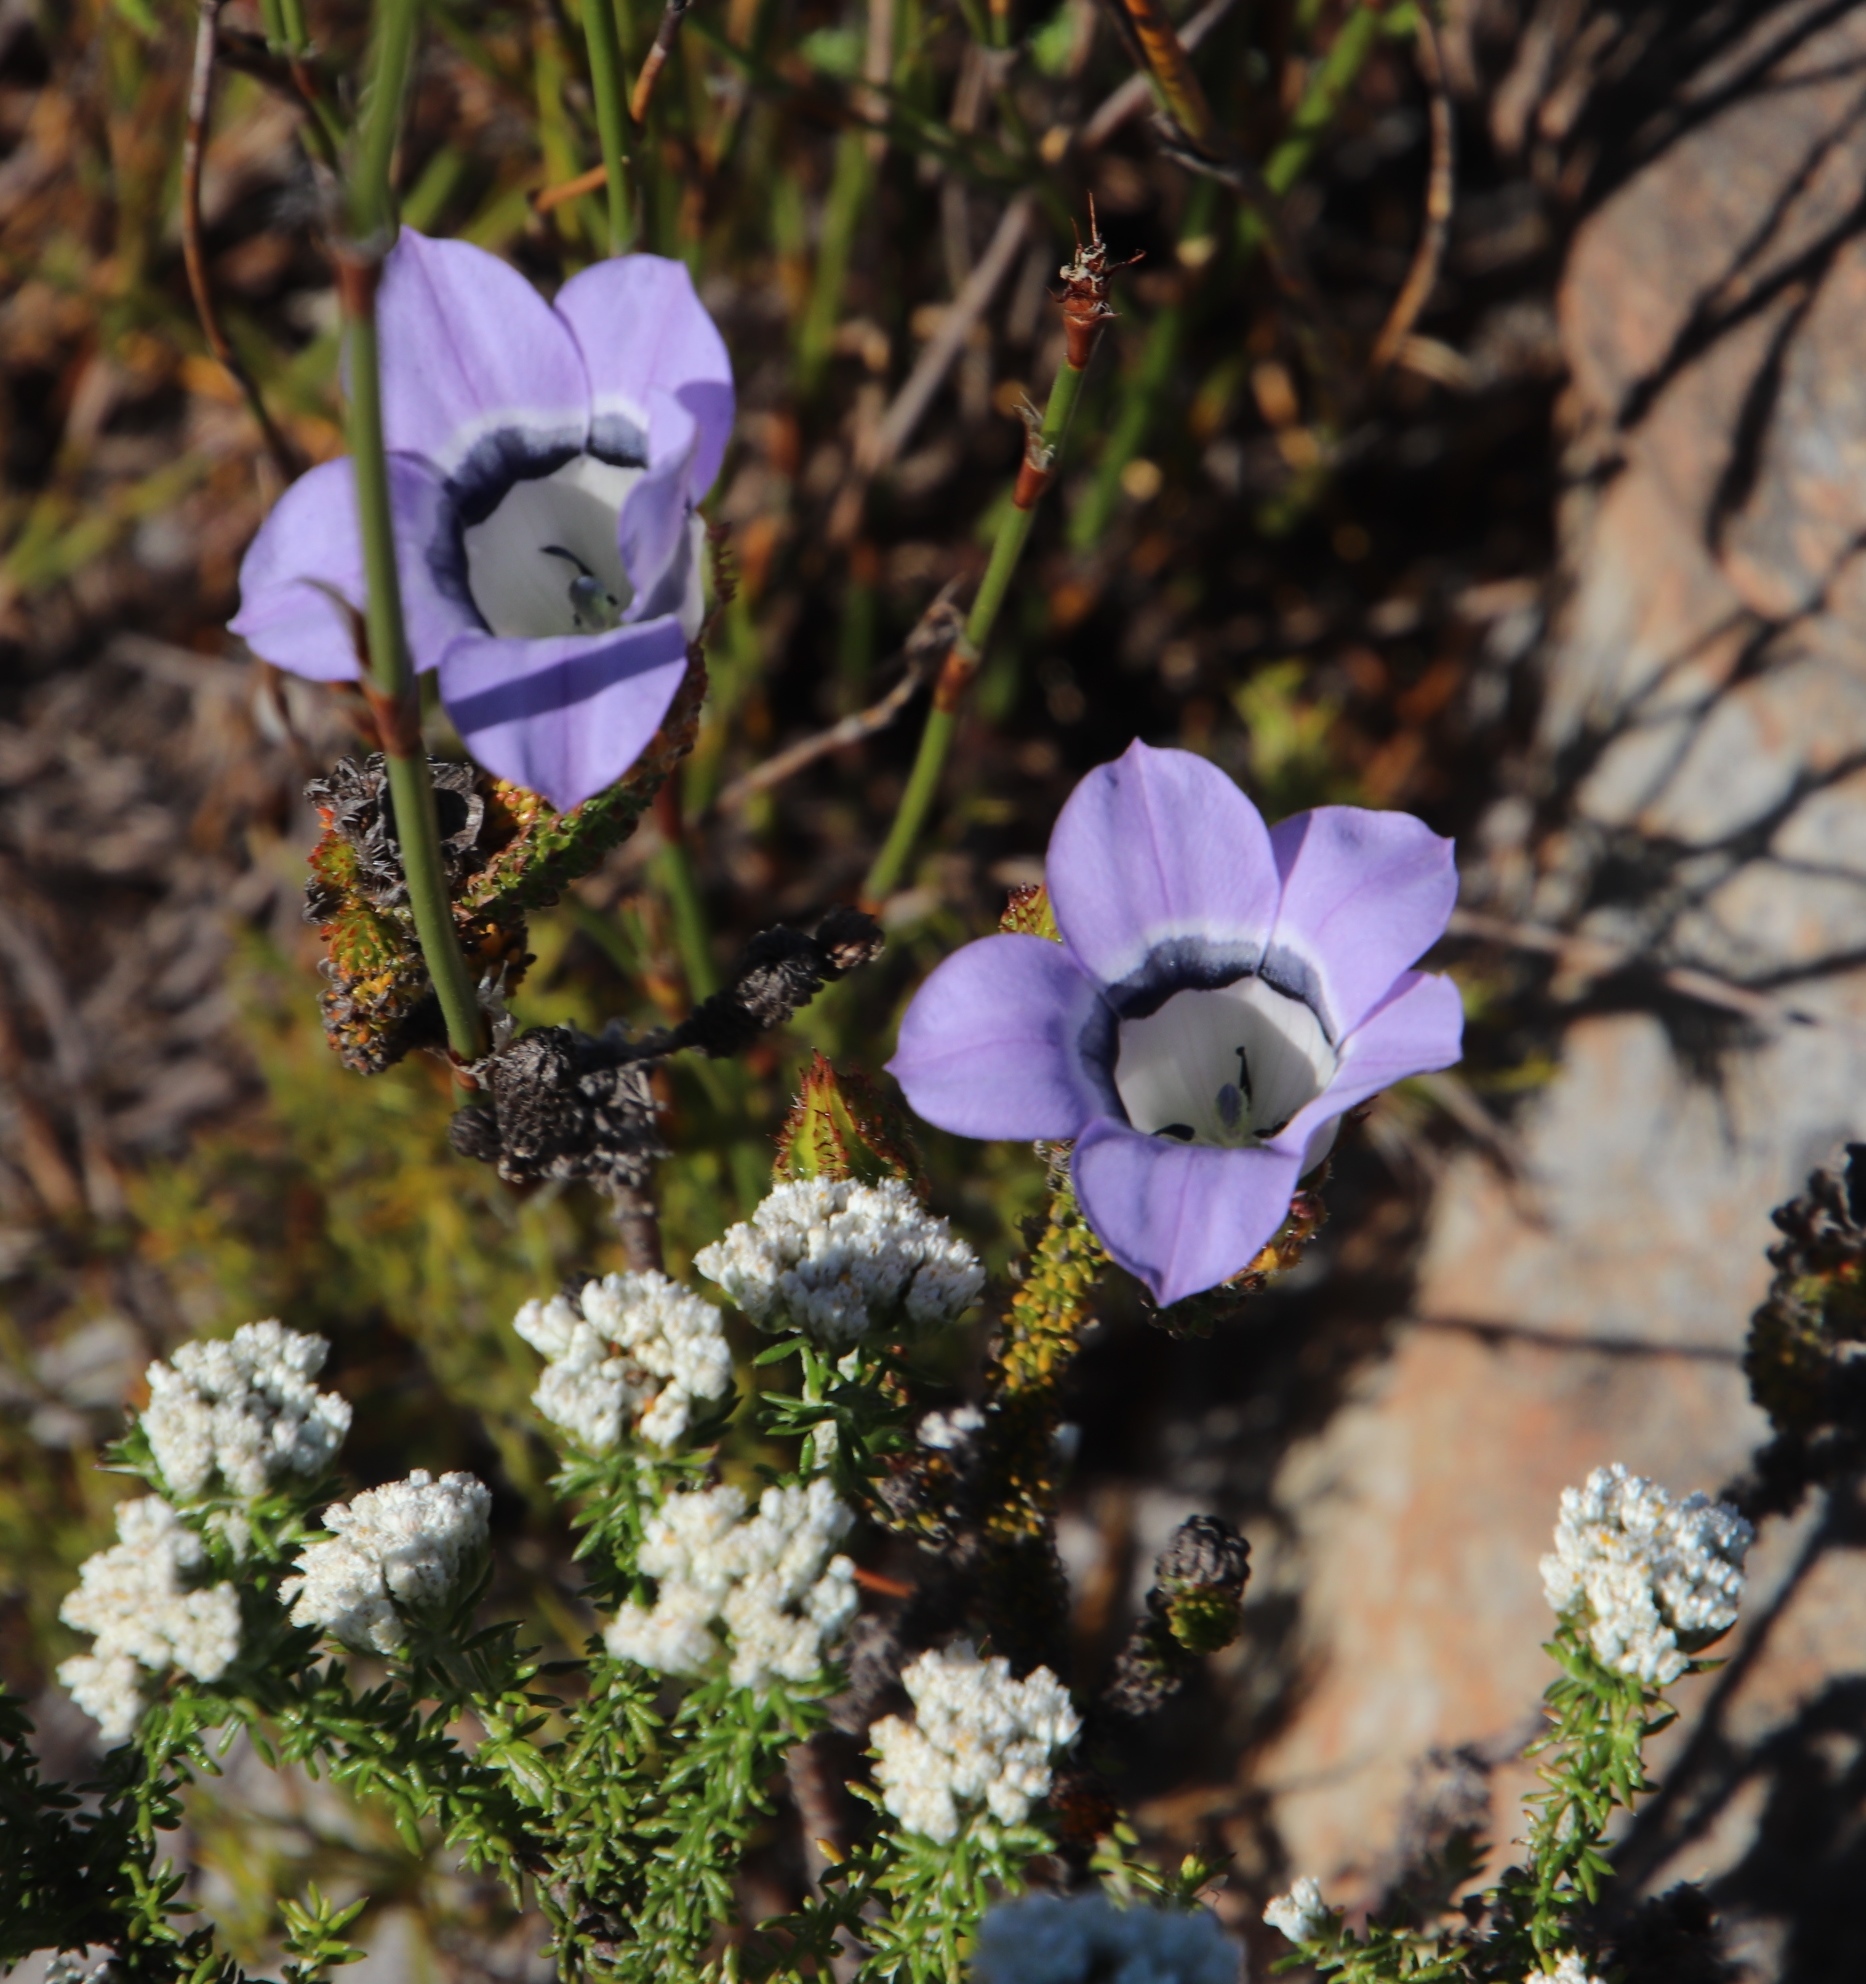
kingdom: Plantae
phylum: Tracheophyta
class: Magnoliopsida
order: Asterales
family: Campanulaceae
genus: Roella
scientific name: Roella ciliata
